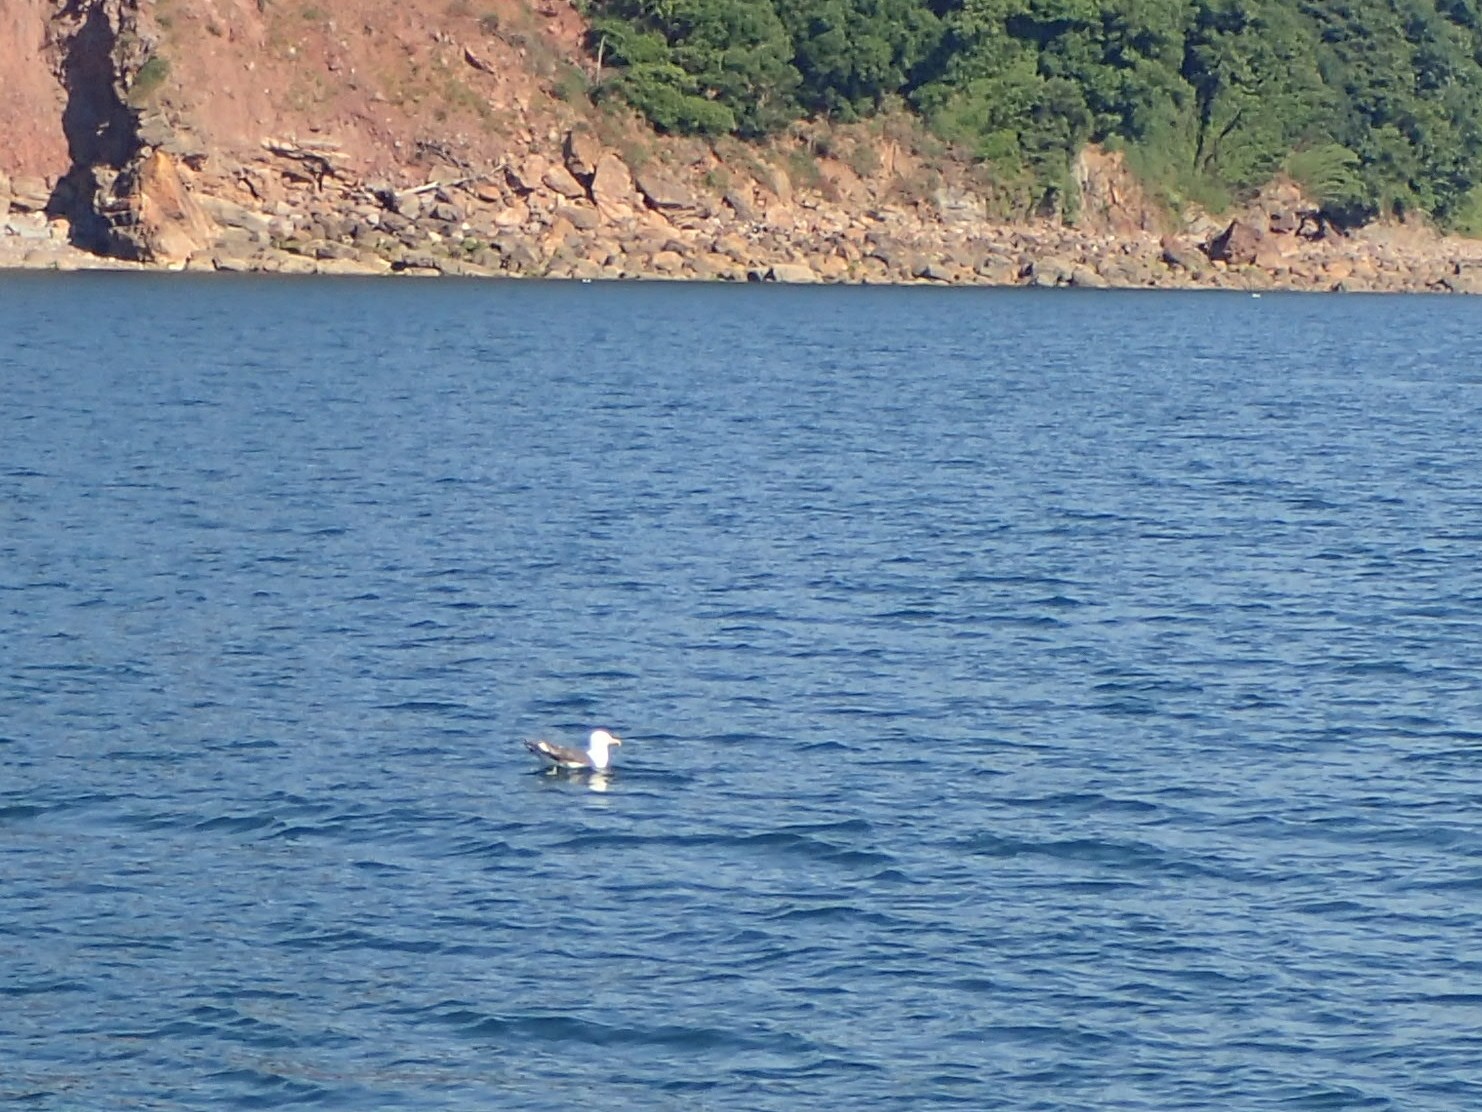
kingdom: Animalia
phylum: Chordata
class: Aves
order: Charadriiformes
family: Laridae
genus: Larus
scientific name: Larus
